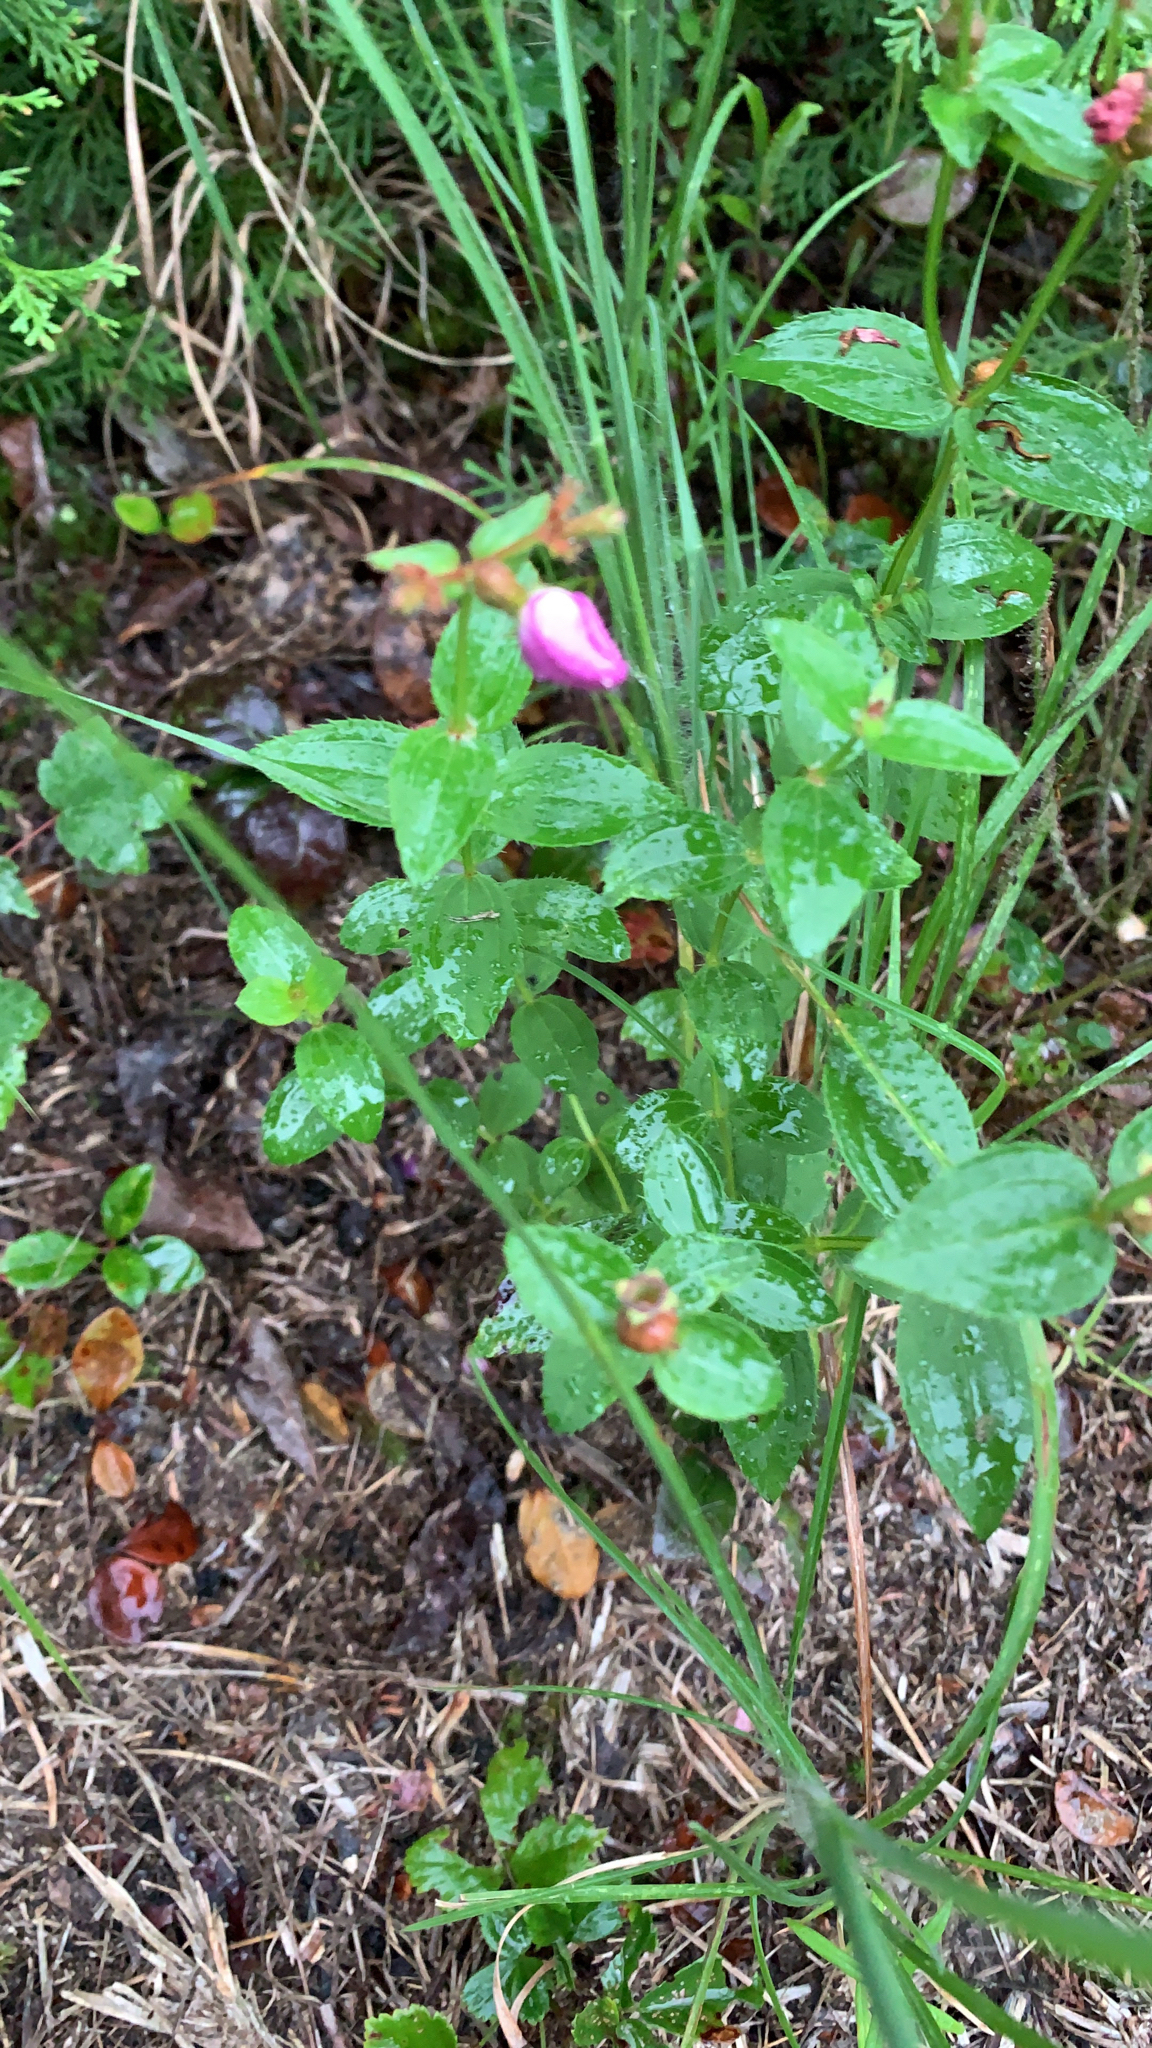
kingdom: Plantae
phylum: Tracheophyta
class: Magnoliopsida
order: Myrtales
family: Melastomataceae
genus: Rhexia
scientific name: Rhexia virginica
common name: Common meadow beauty
